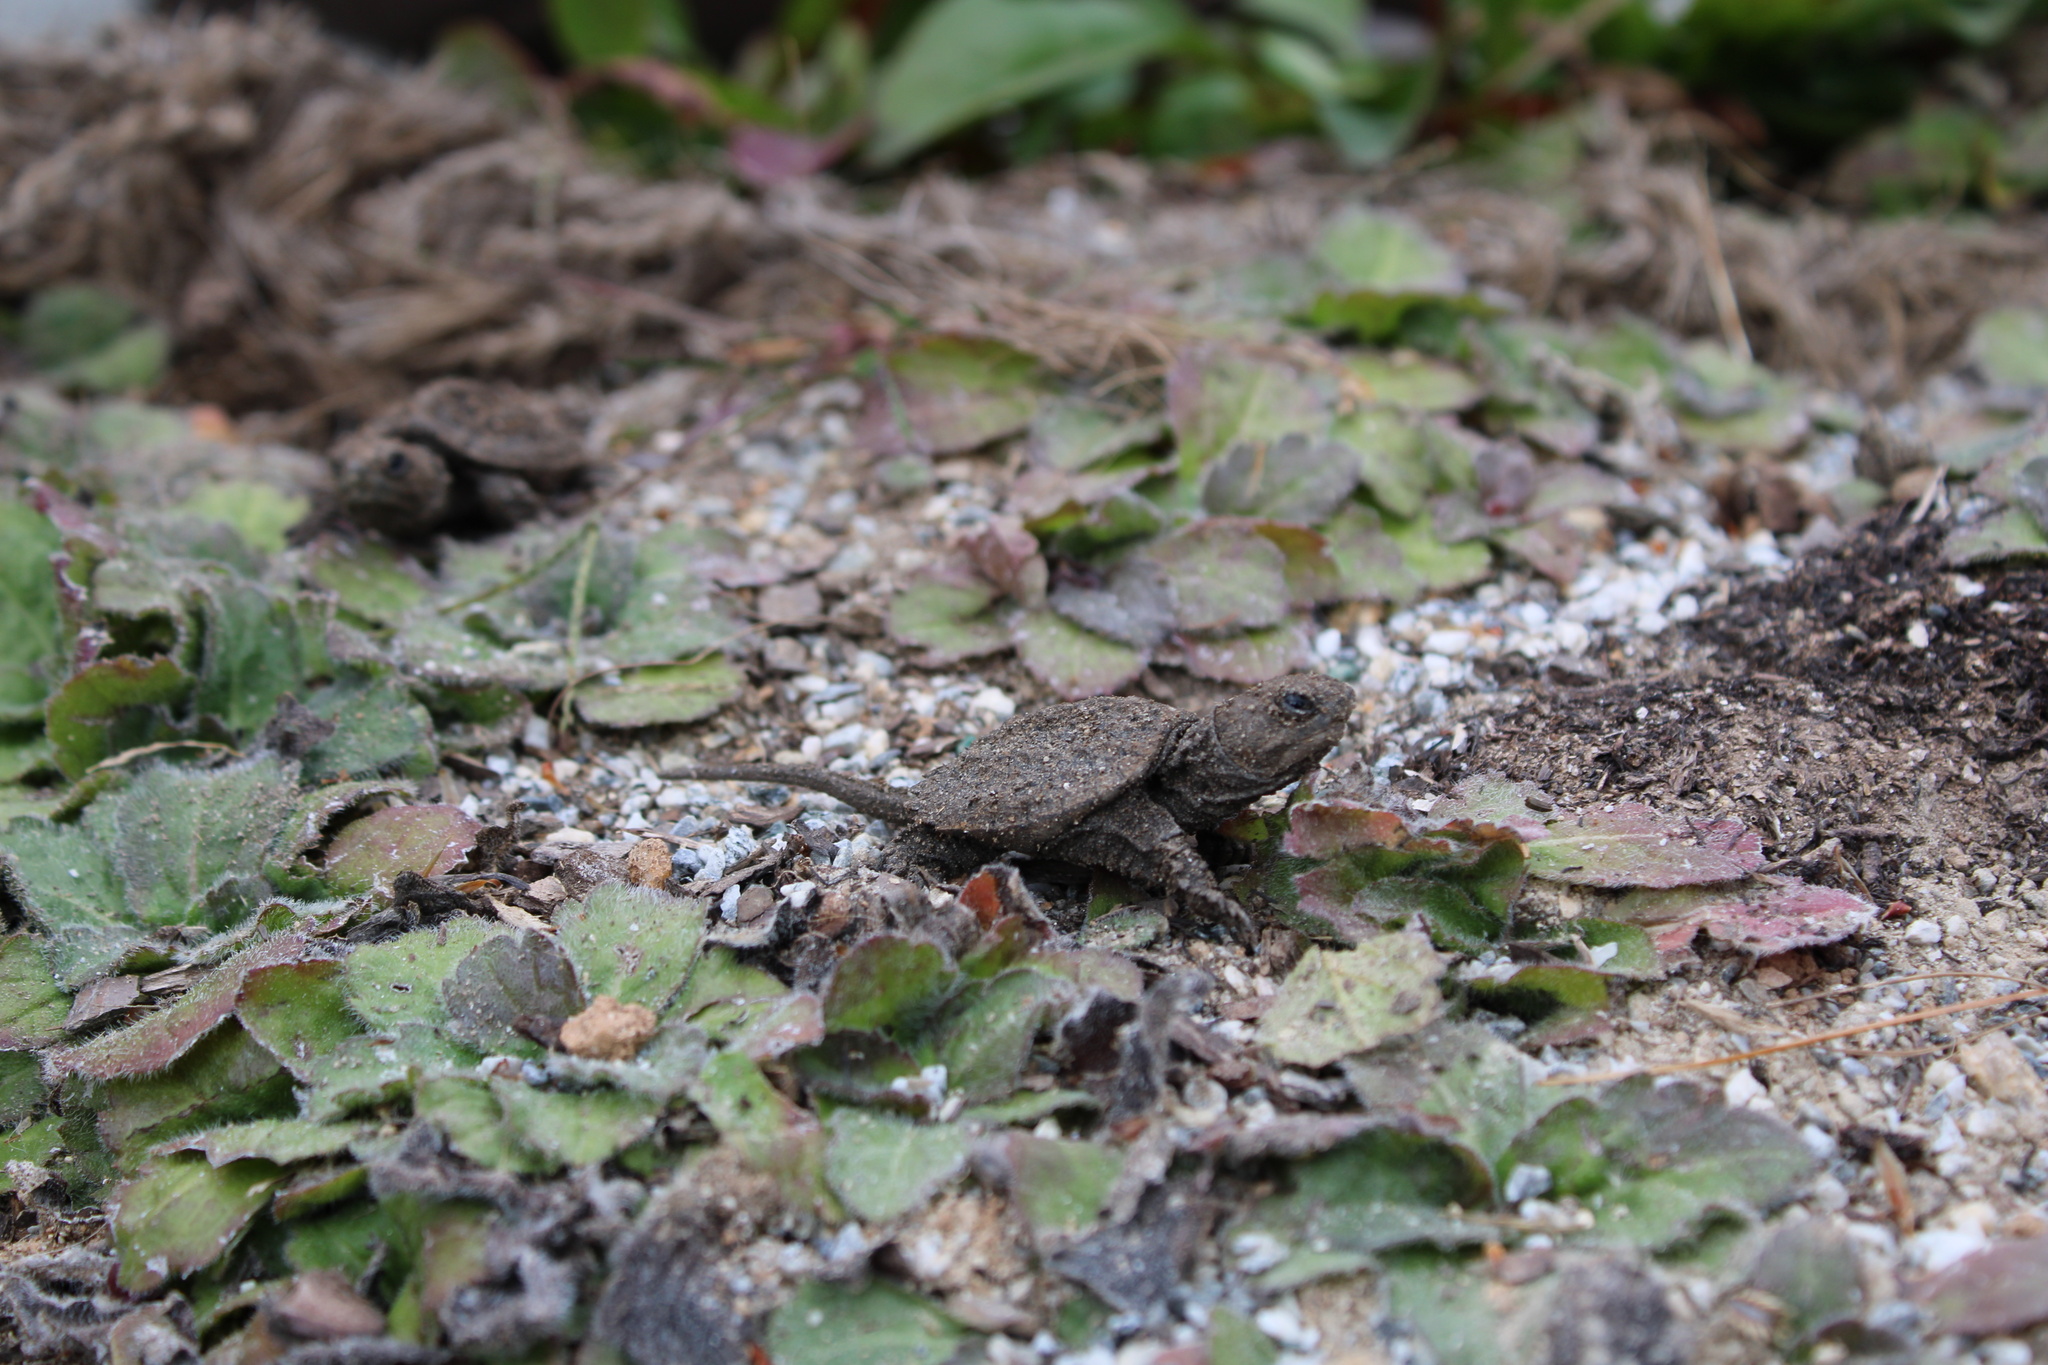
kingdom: Animalia
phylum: Chordata
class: Testudines
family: Chelydridae
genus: Chelydra
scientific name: Chelydra serpentina
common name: Common snapping turtle
